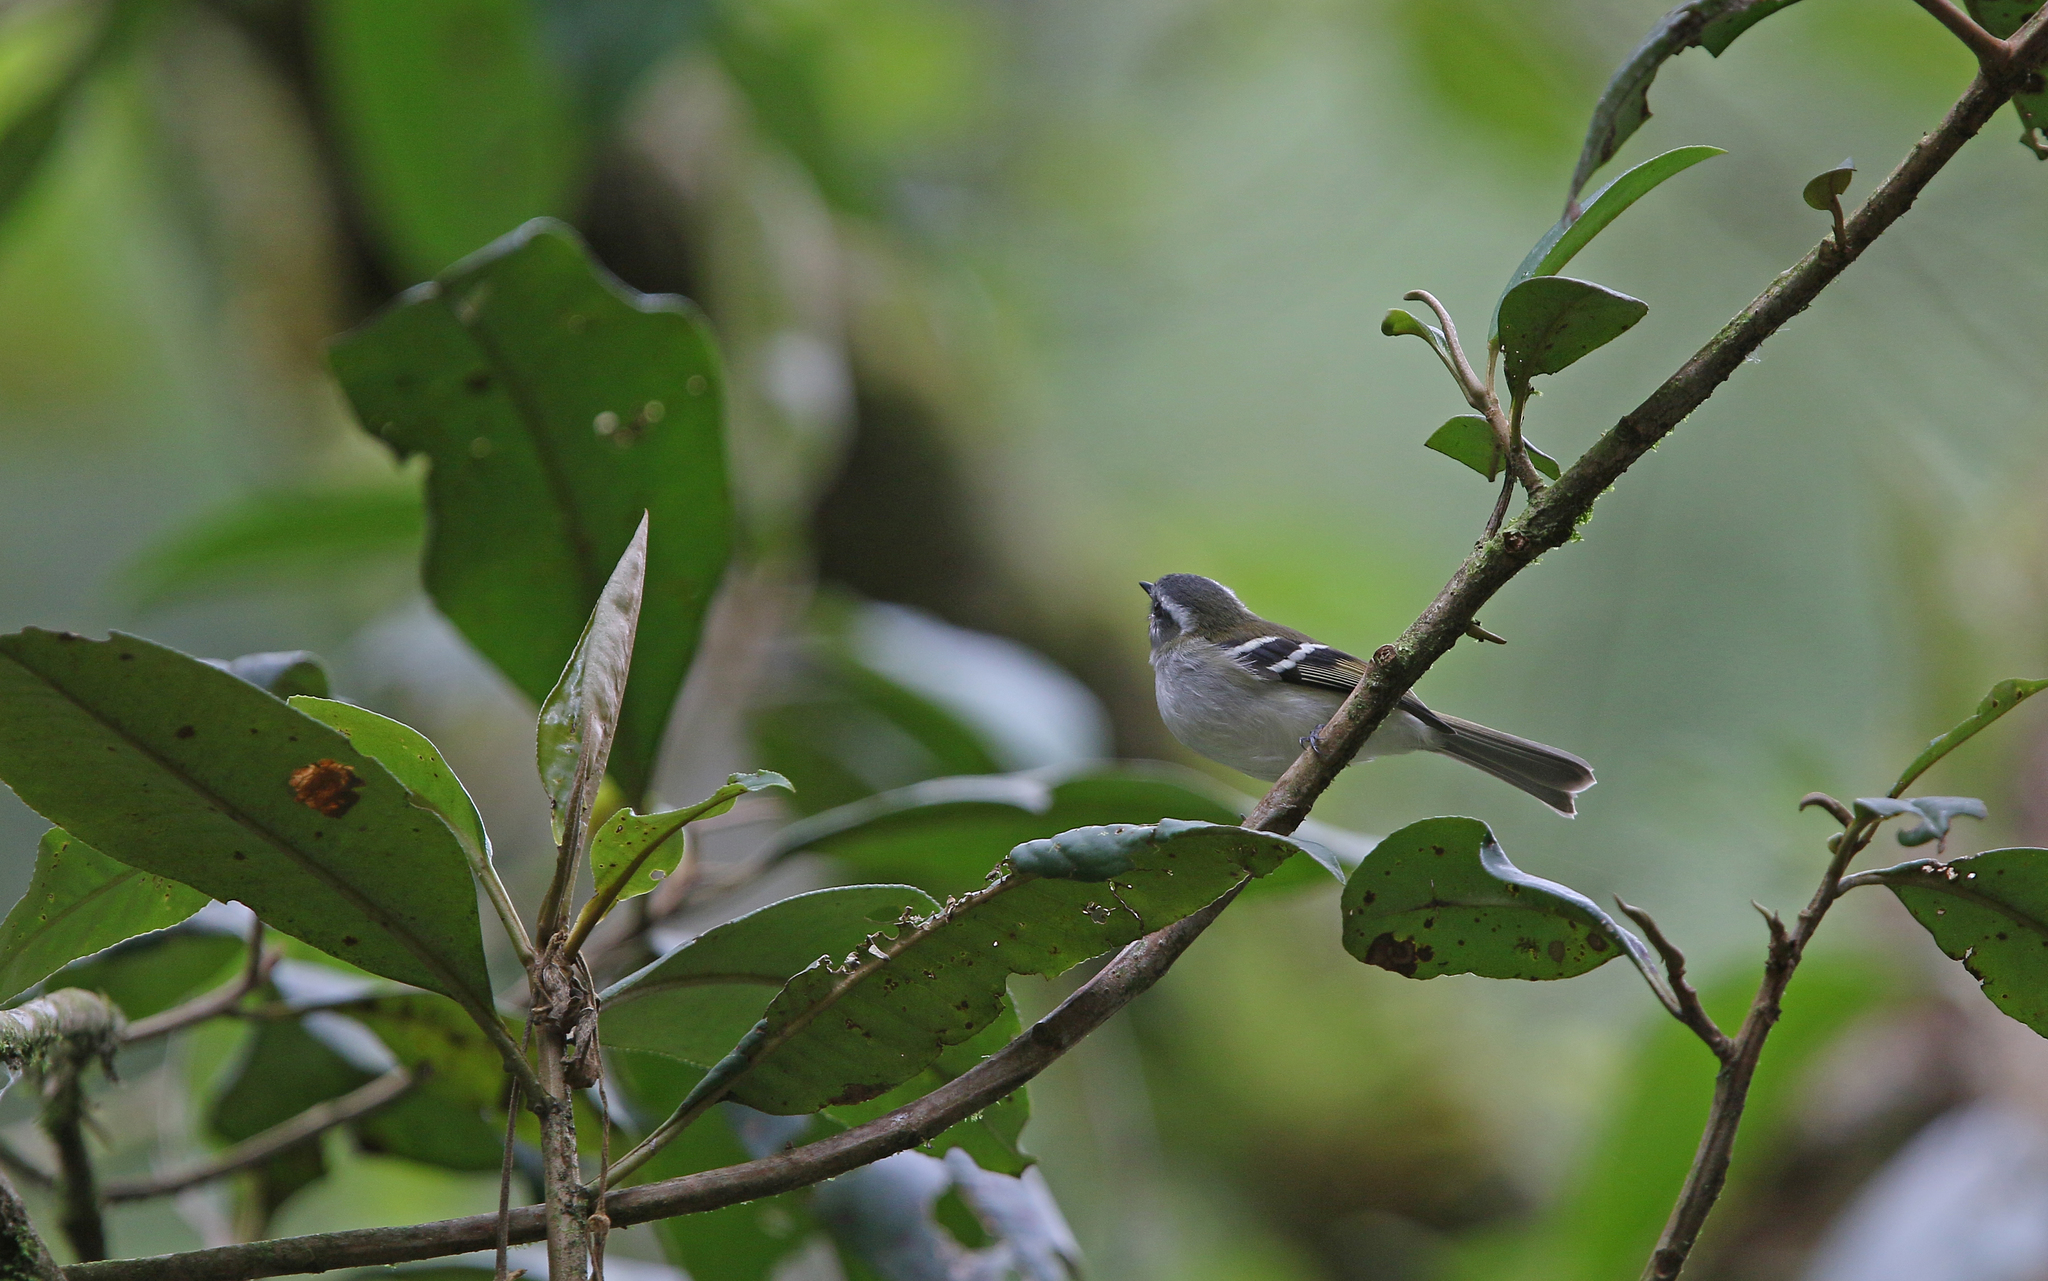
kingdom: Animalia
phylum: Chordata
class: Aves
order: Passeriformes
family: Tyrannidae
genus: Mecocerculus
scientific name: Mecocerculus stictopterus
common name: White-banded tyrannulet
